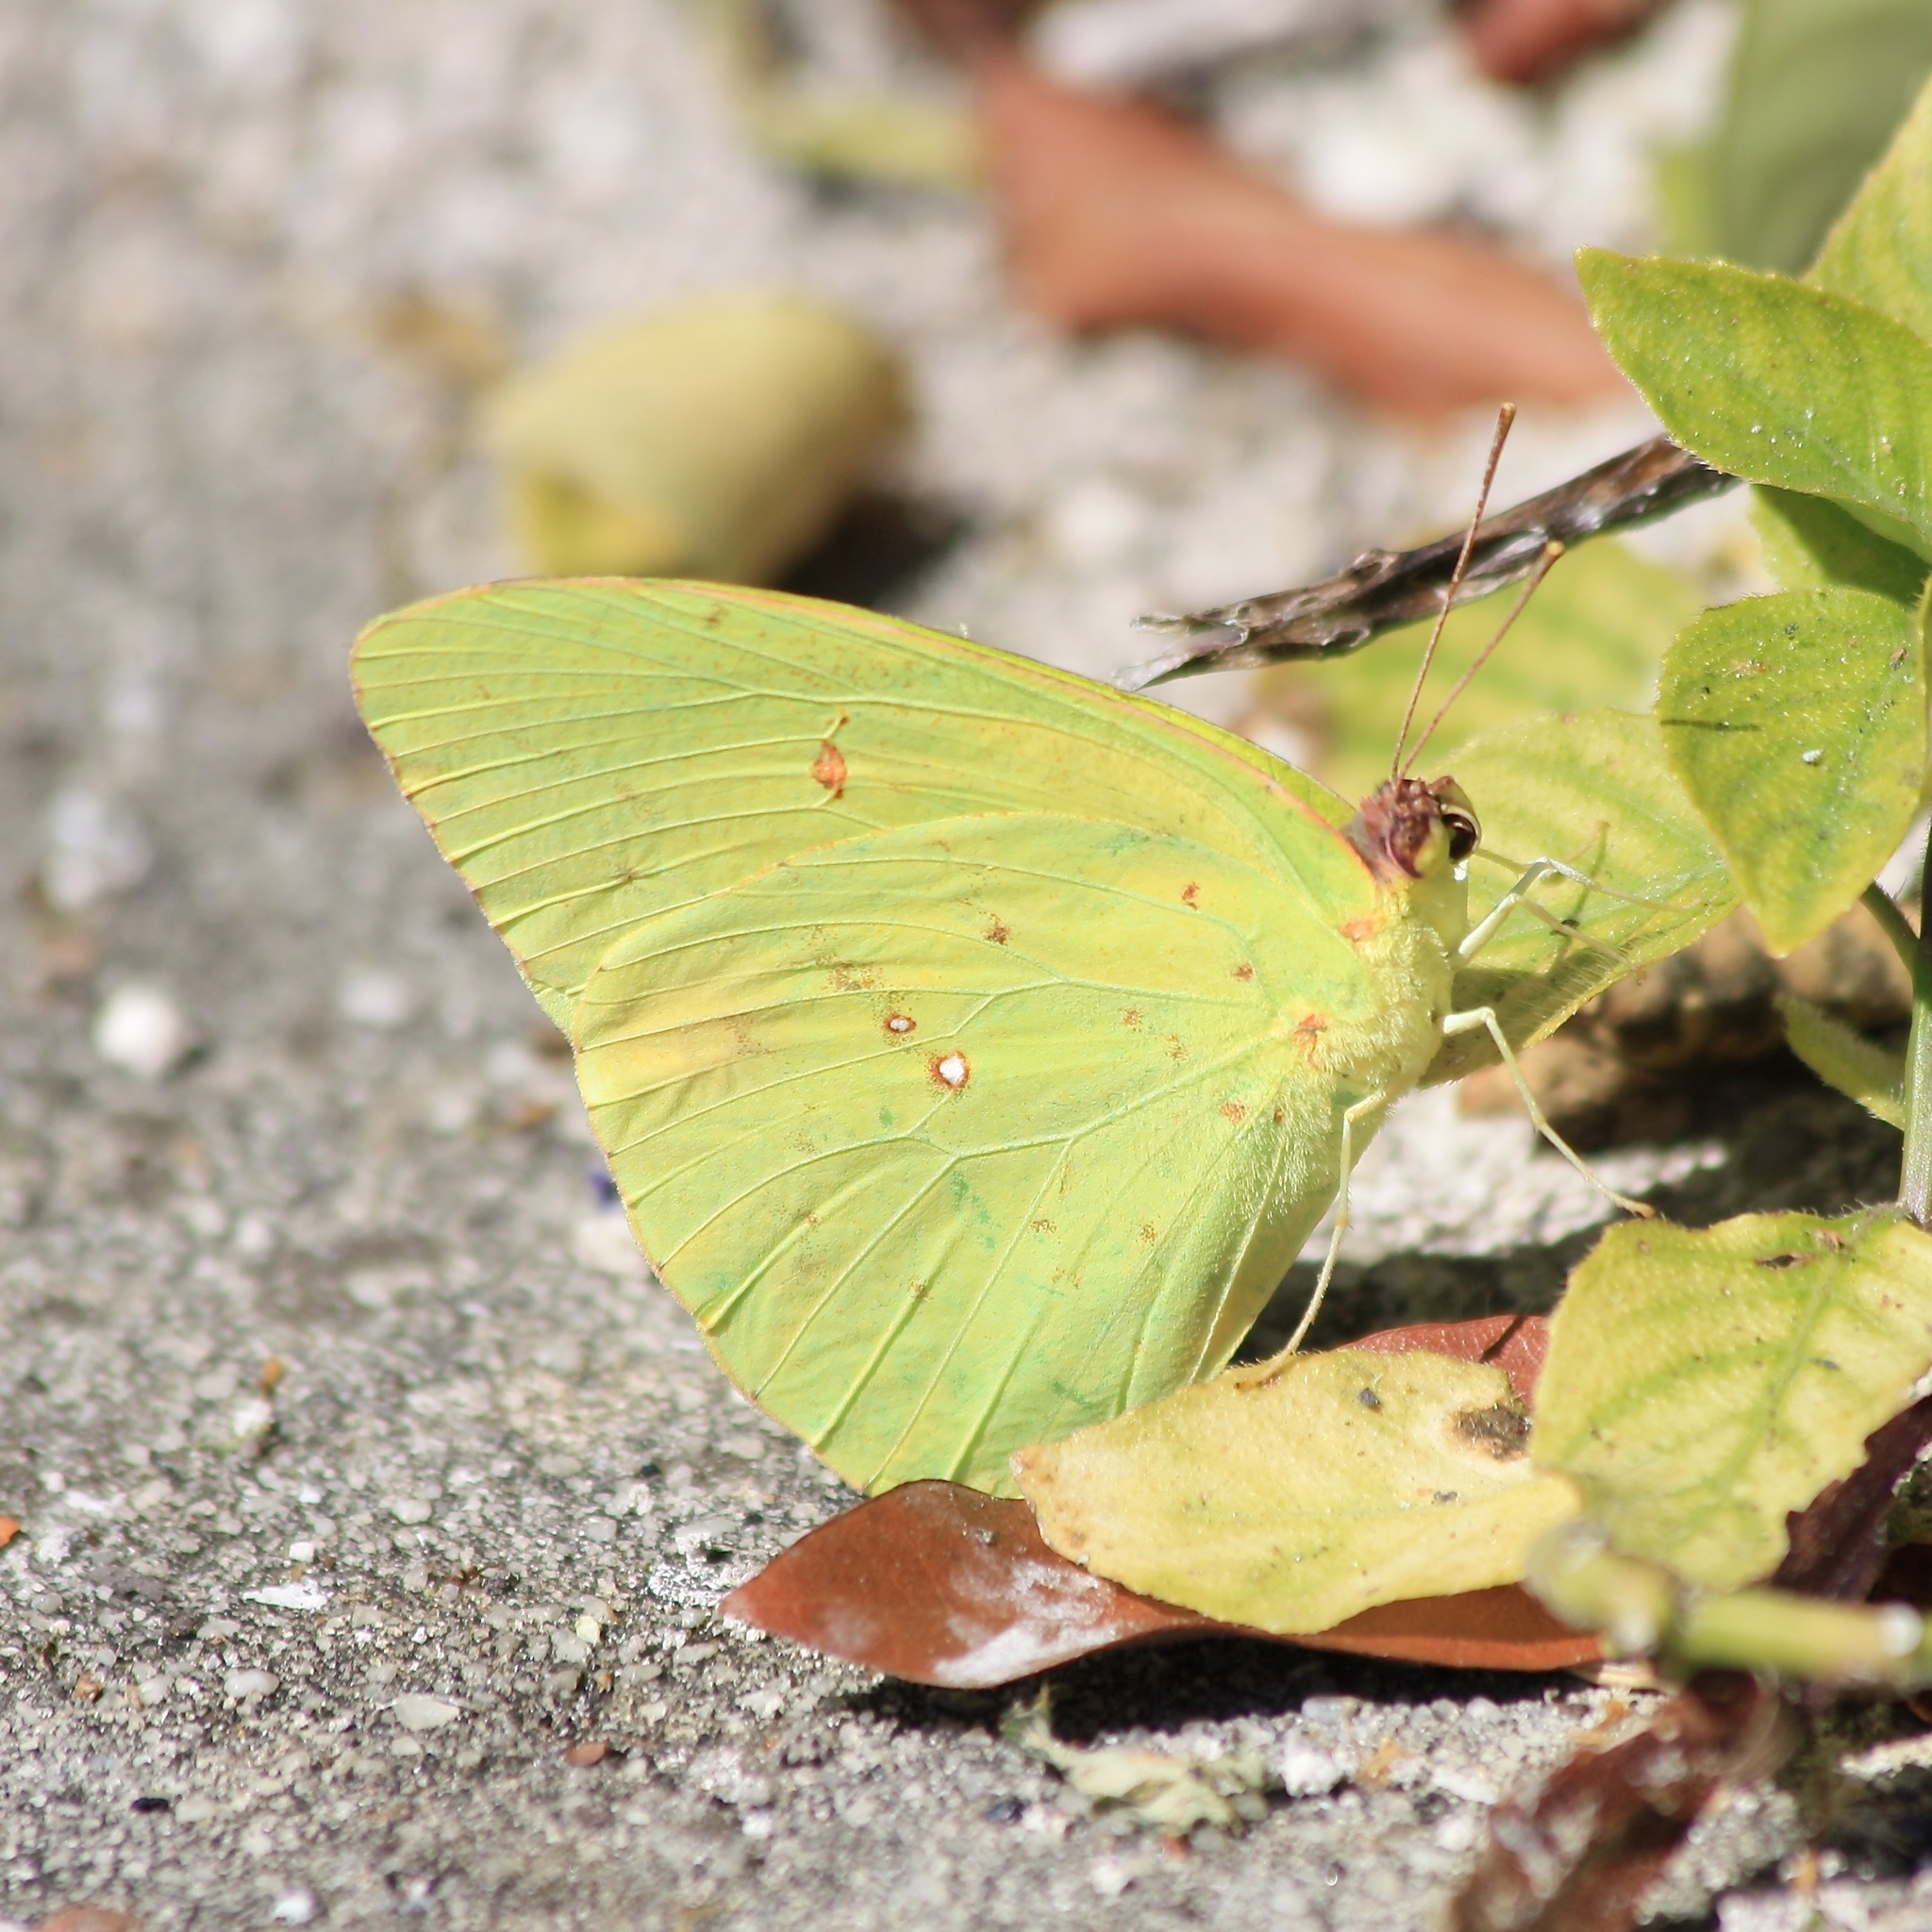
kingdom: Animalia
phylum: Arthropoda
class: Insecta
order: Lepidoptera
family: Pieridae
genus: Phoebis
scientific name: Phoebis sennae
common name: Cloudless sulphur
